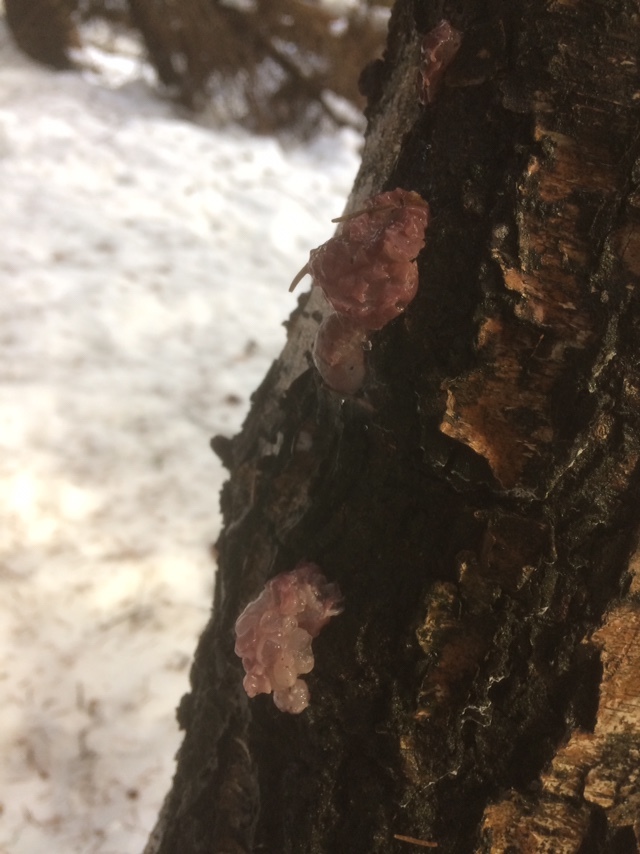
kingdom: Fungi
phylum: Ascomycota
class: Leotiomycetes
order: Helotiales
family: Gelatinodiscaceae
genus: Ascocoryne
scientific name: Ascocoryne sarcoides
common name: Purple jellydisc
